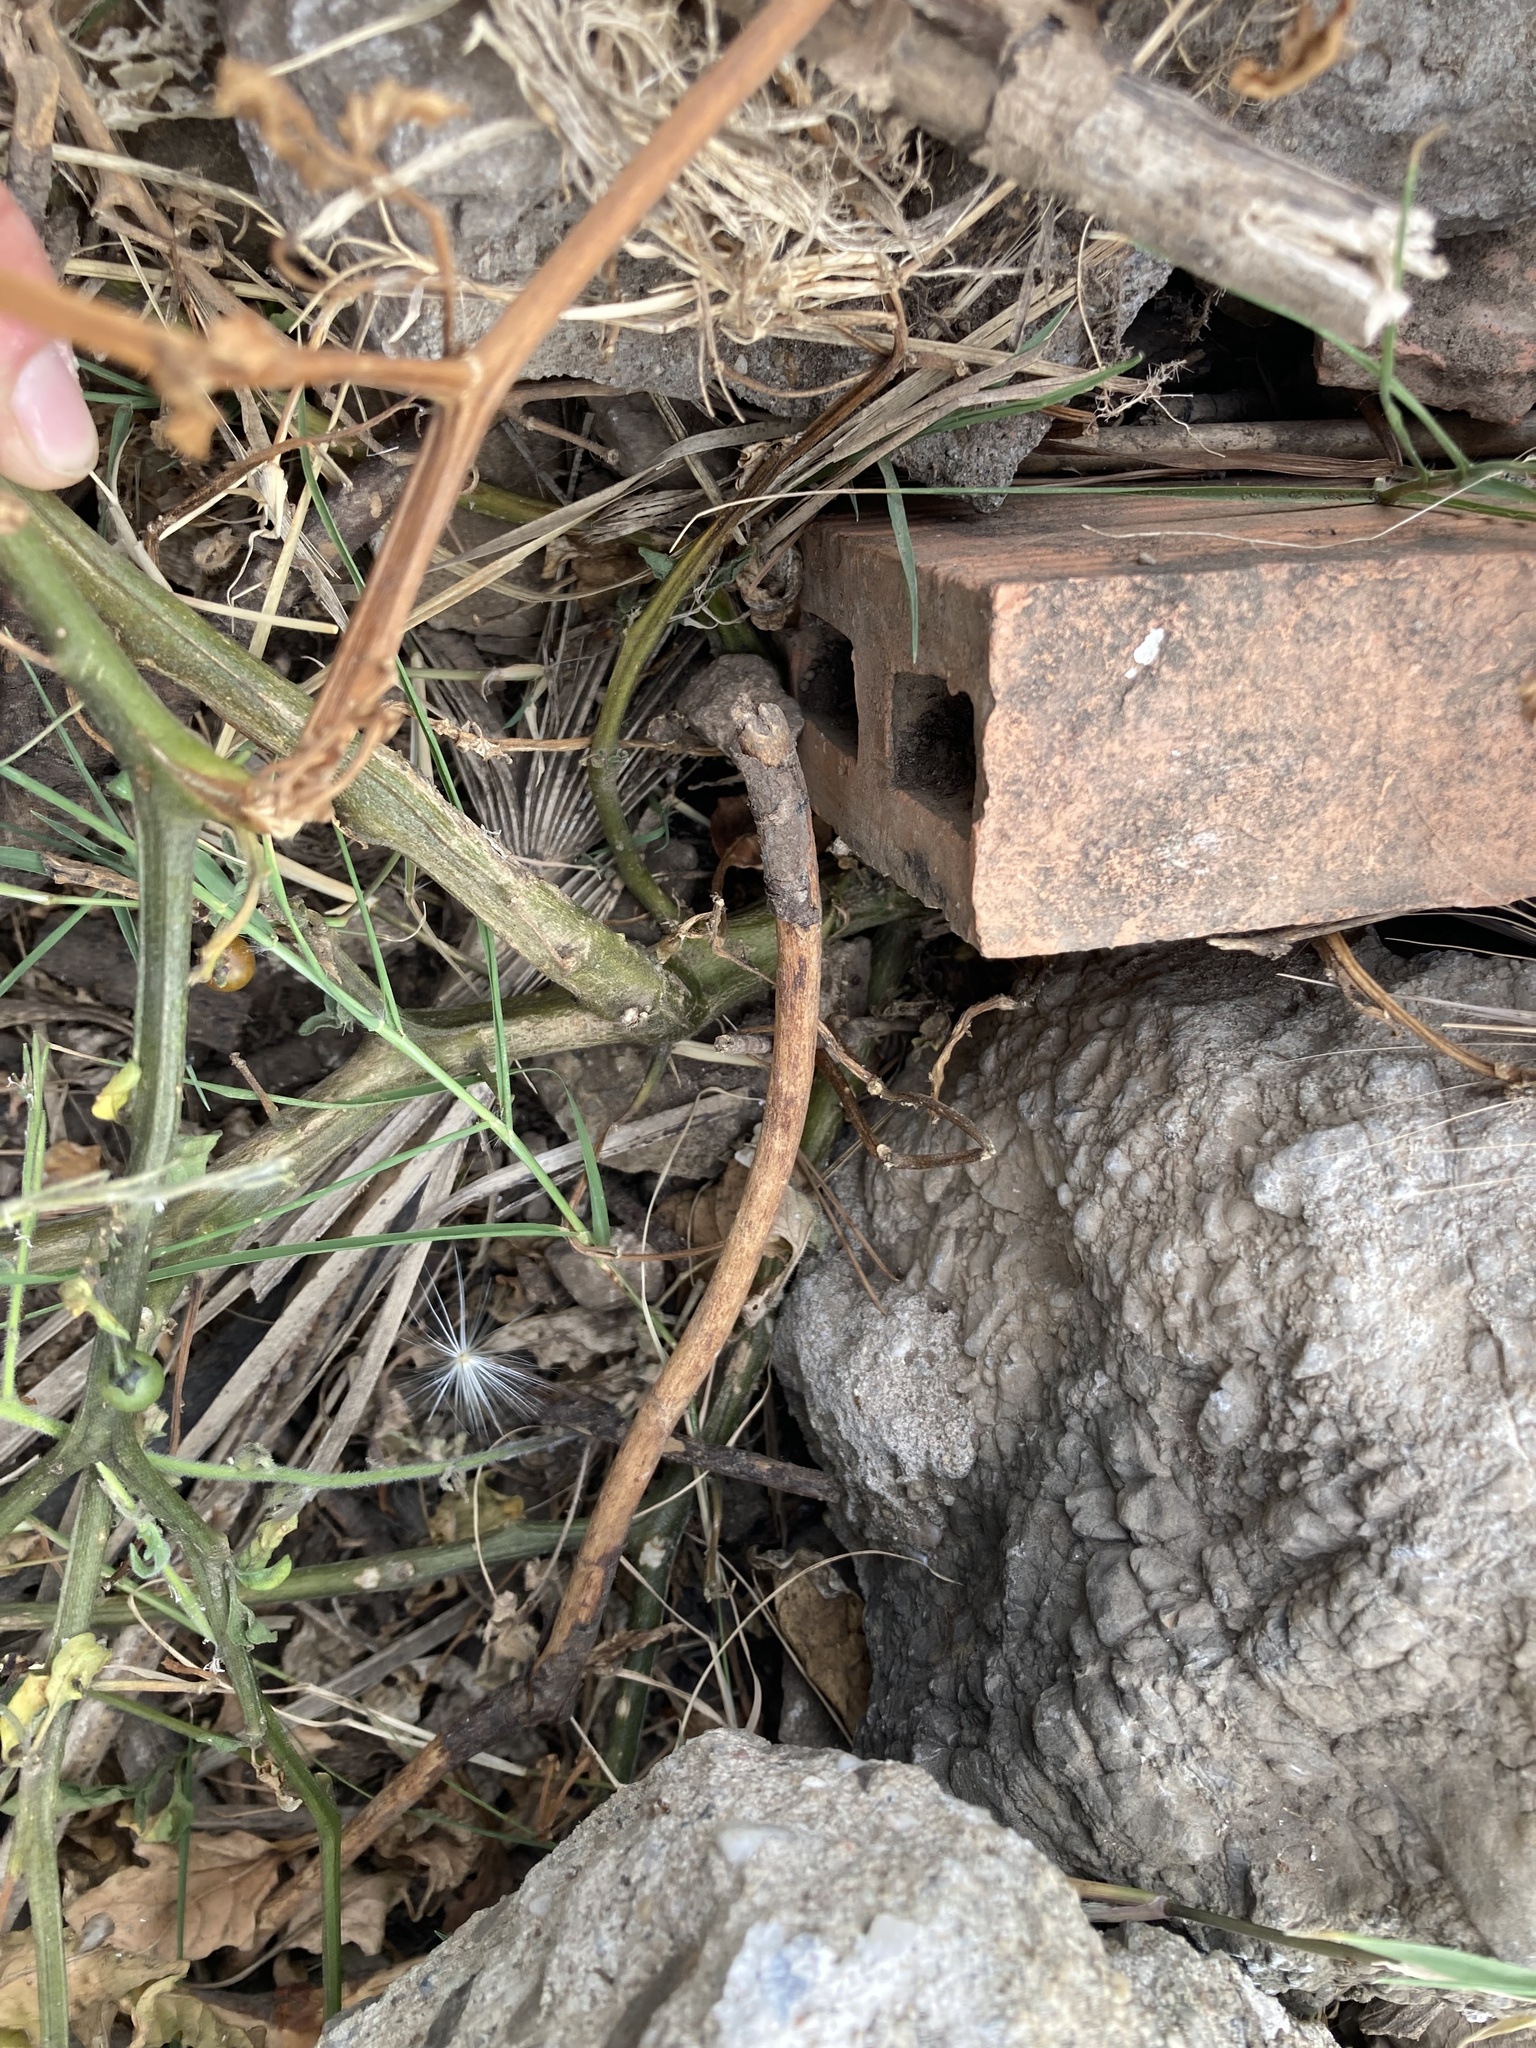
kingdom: Plantae
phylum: Tracheophyta
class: Magnoliopsida
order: Solanales
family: Solanaceae
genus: Solanum
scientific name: Solanum villosum
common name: Red nightshade
